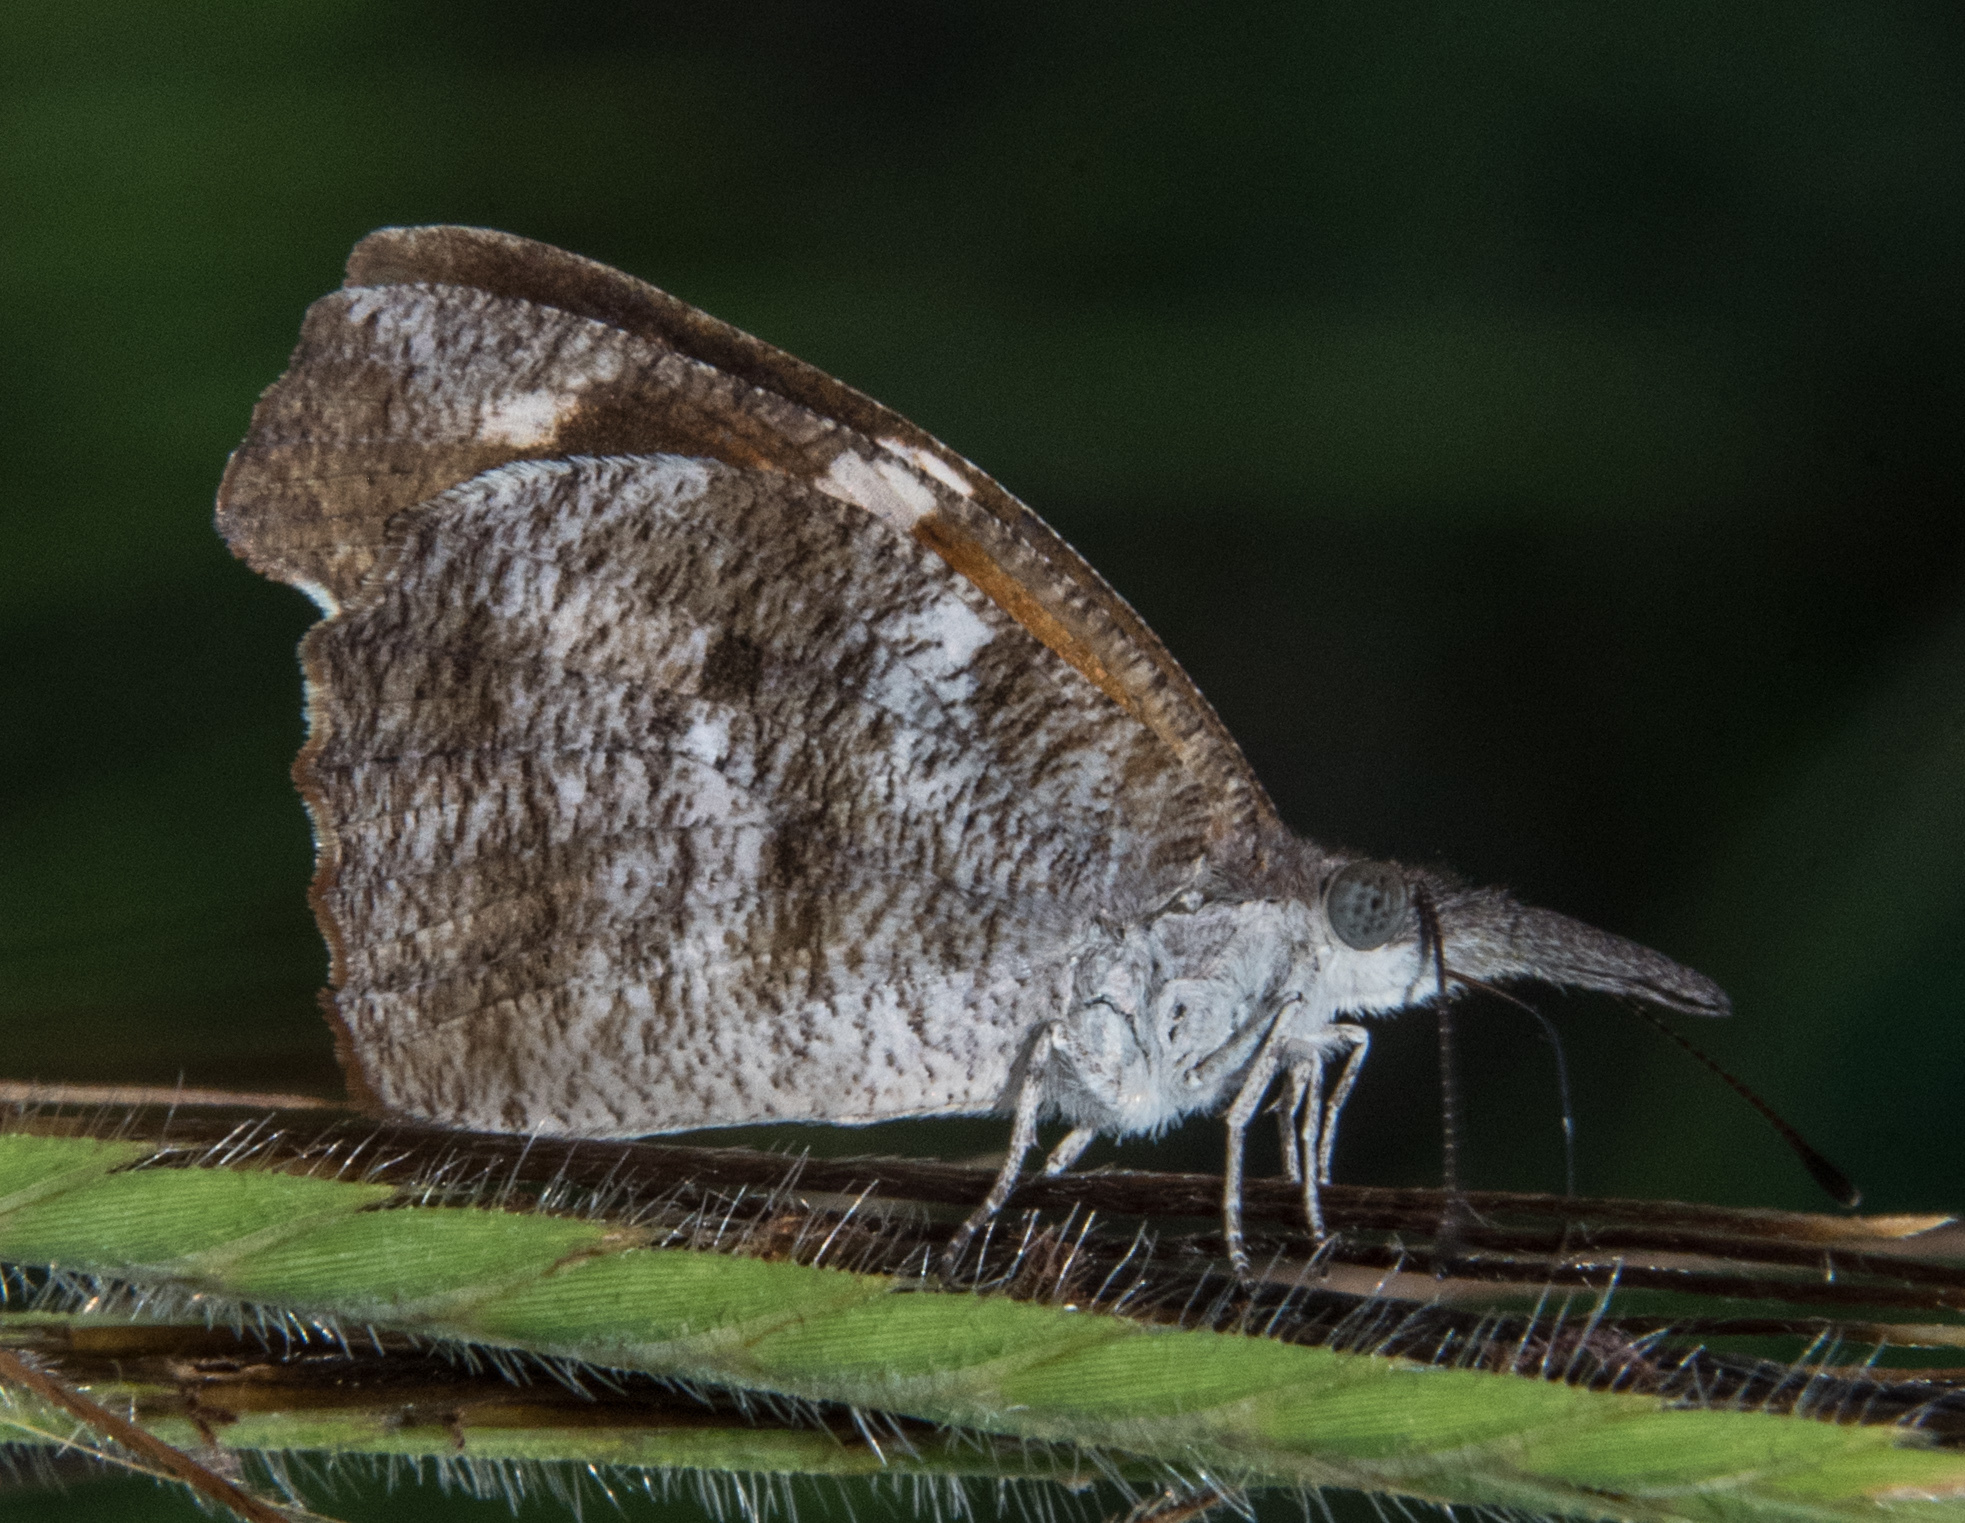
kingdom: Animalia
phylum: Arthropoda
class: Insecta
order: Lepidoptera
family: Nymphalidae
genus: Libytheana
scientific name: Libytheana carinenta
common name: American snout
